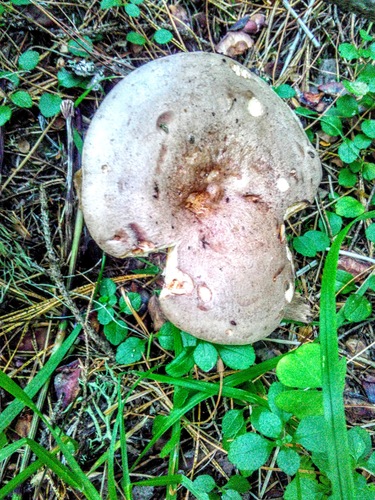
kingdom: Fungi
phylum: Basidiomycota
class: Agaricomycetes
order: Russulales
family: Russulaceae
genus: Lactarius
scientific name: Lactarius trivialis
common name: Tacked milkcap
